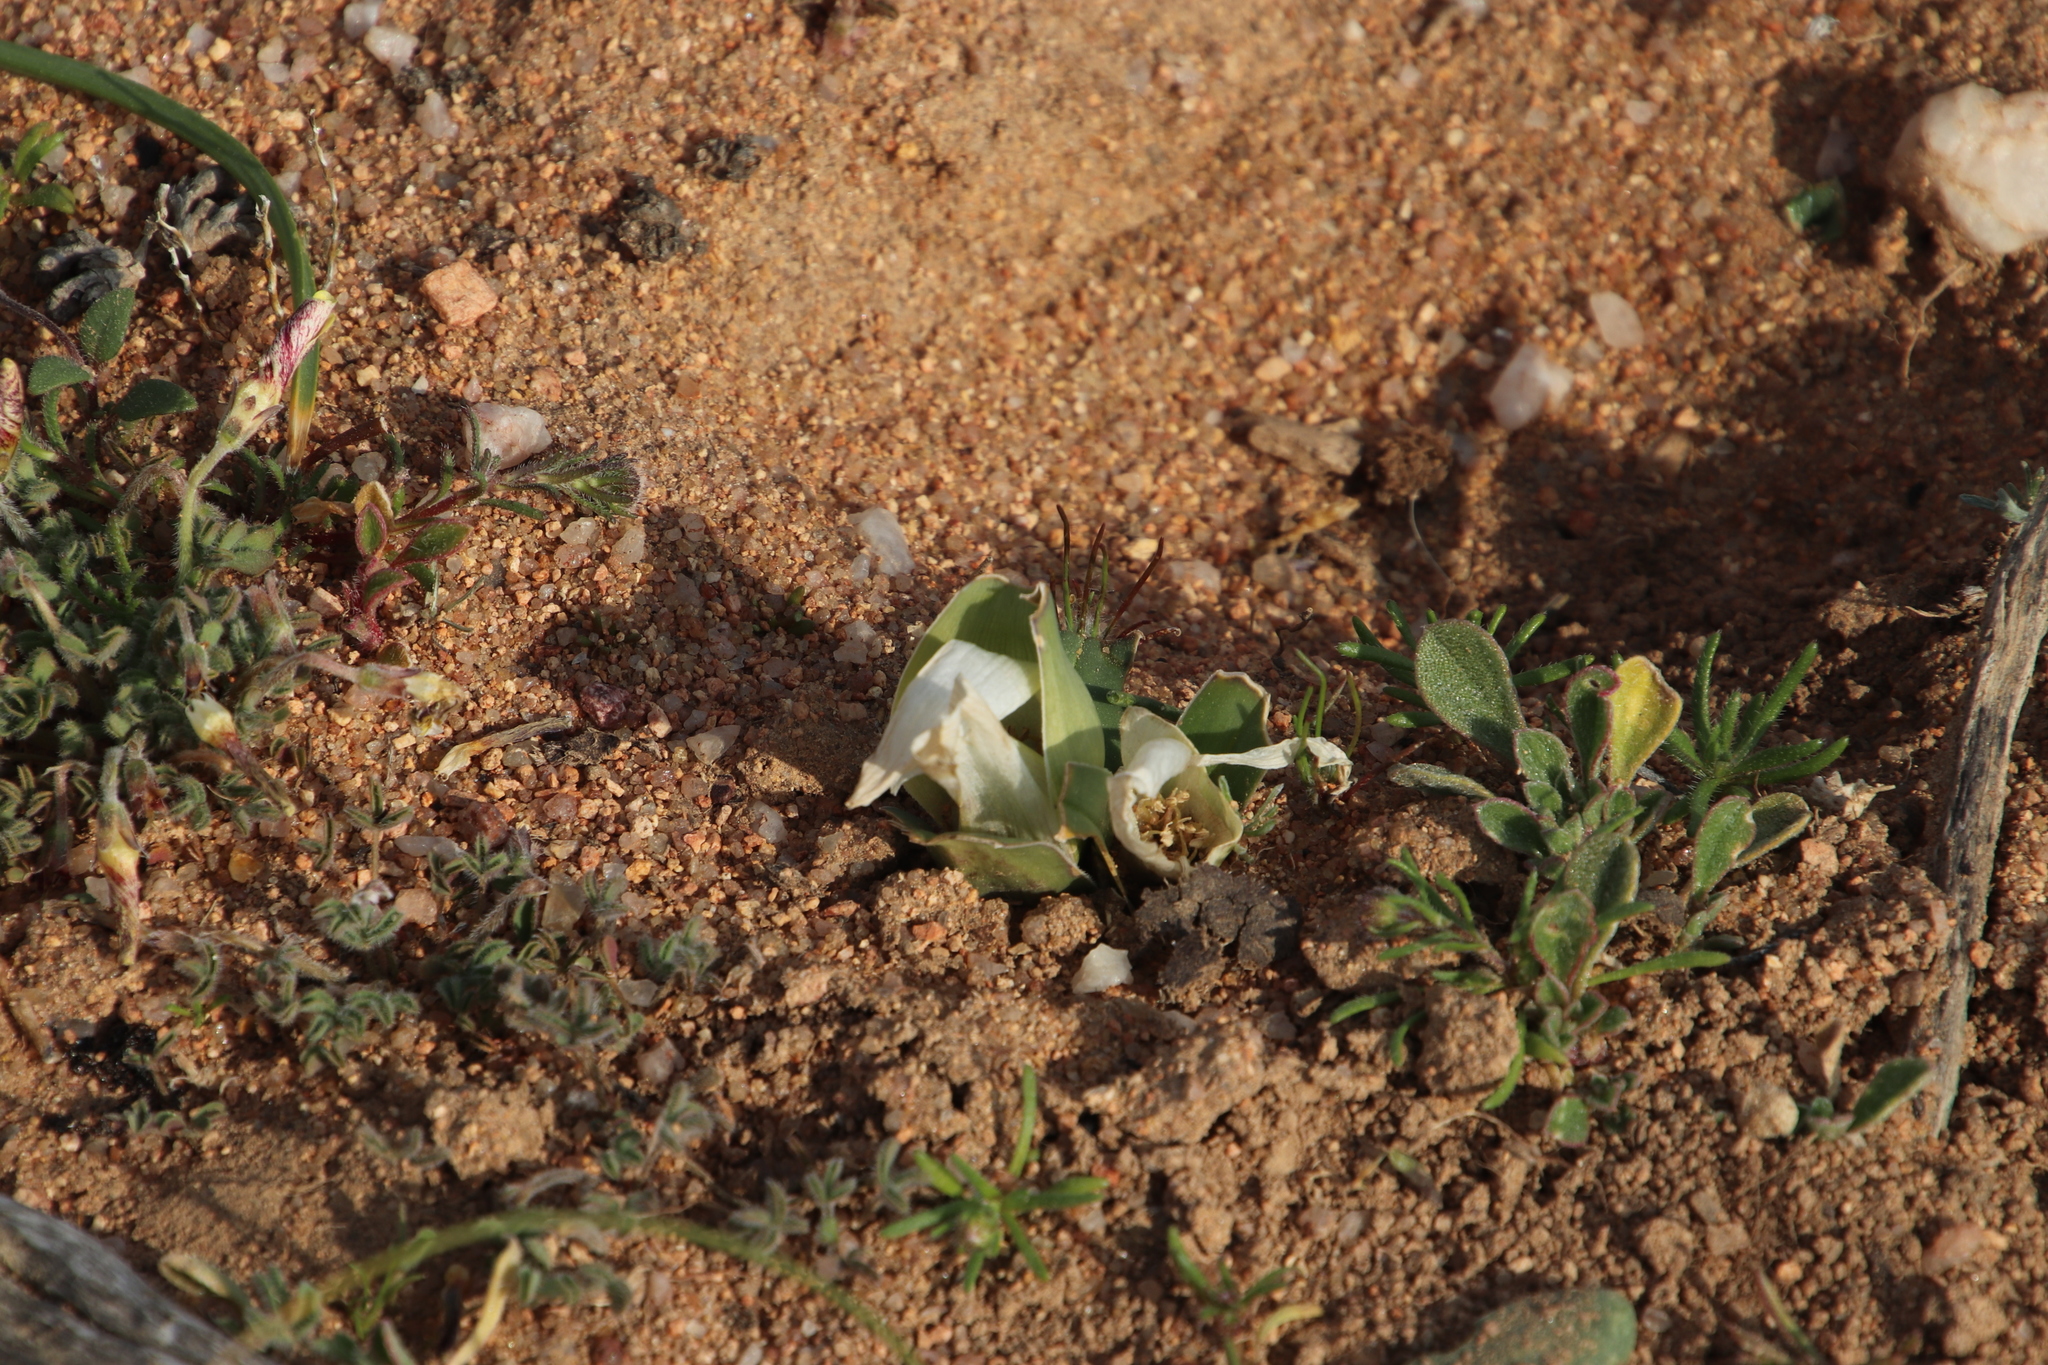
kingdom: Plantae
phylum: Tracheophyta
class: Liliopsida
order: Liliales
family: Colchicaceae
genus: Colchicum
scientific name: Colchicum capense
